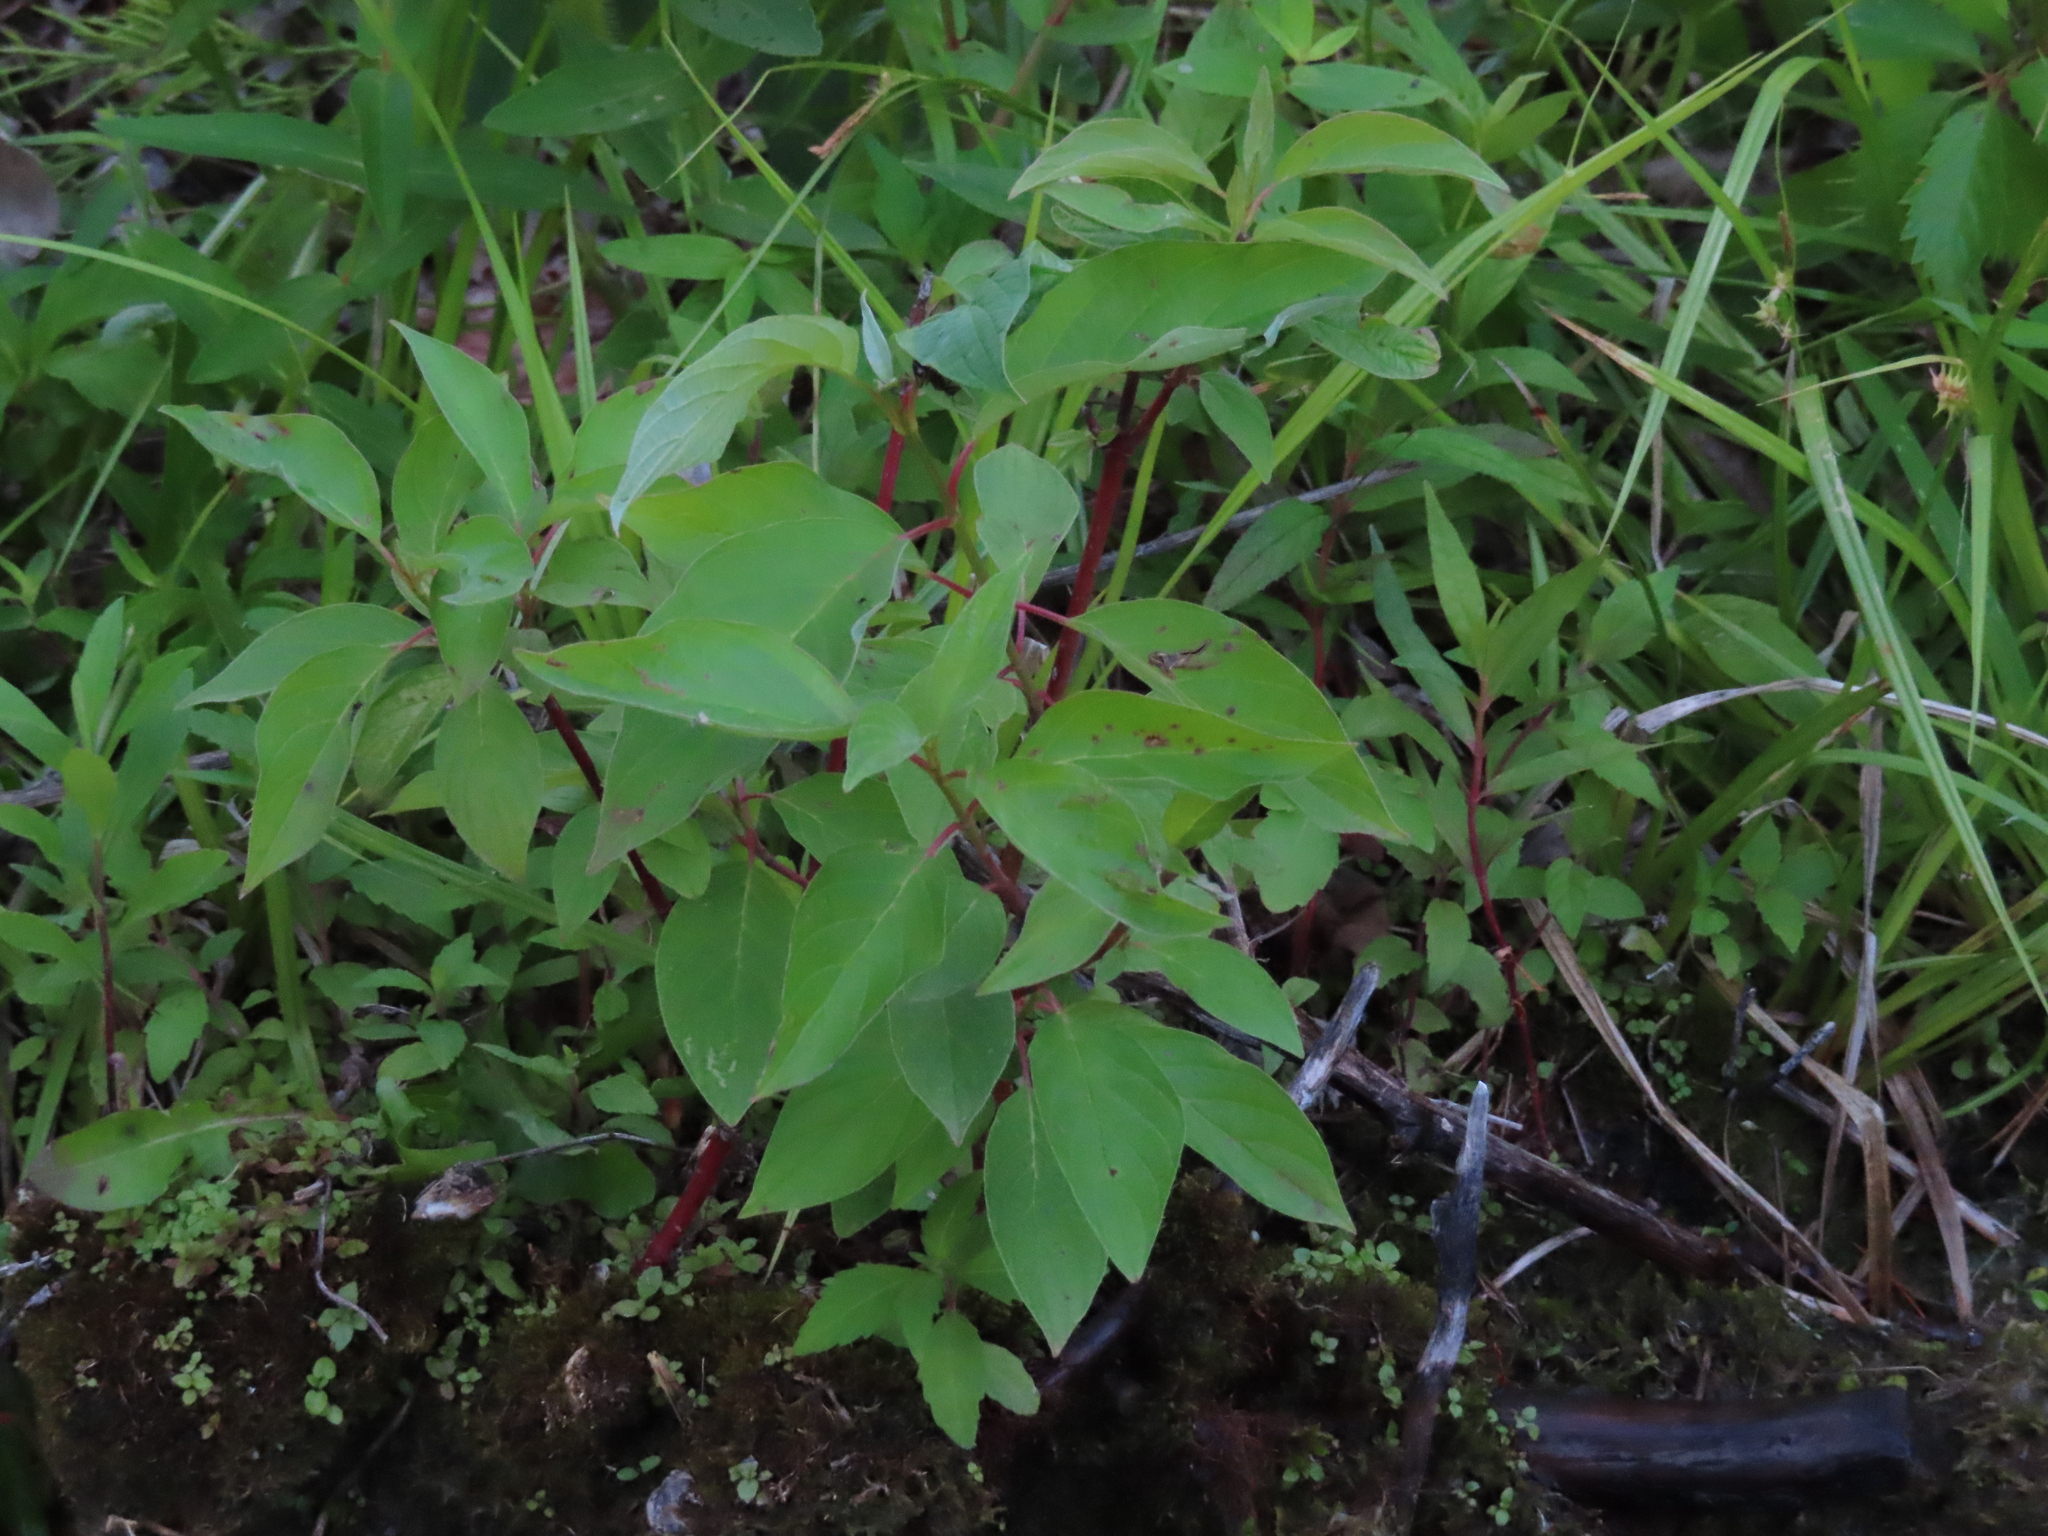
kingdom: Plantae
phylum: Tracheophyta
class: Magnoliopsida
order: Cornales
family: Cornaceae
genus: Cornus
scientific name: Cornus sericea
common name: Red-osier dogwood
